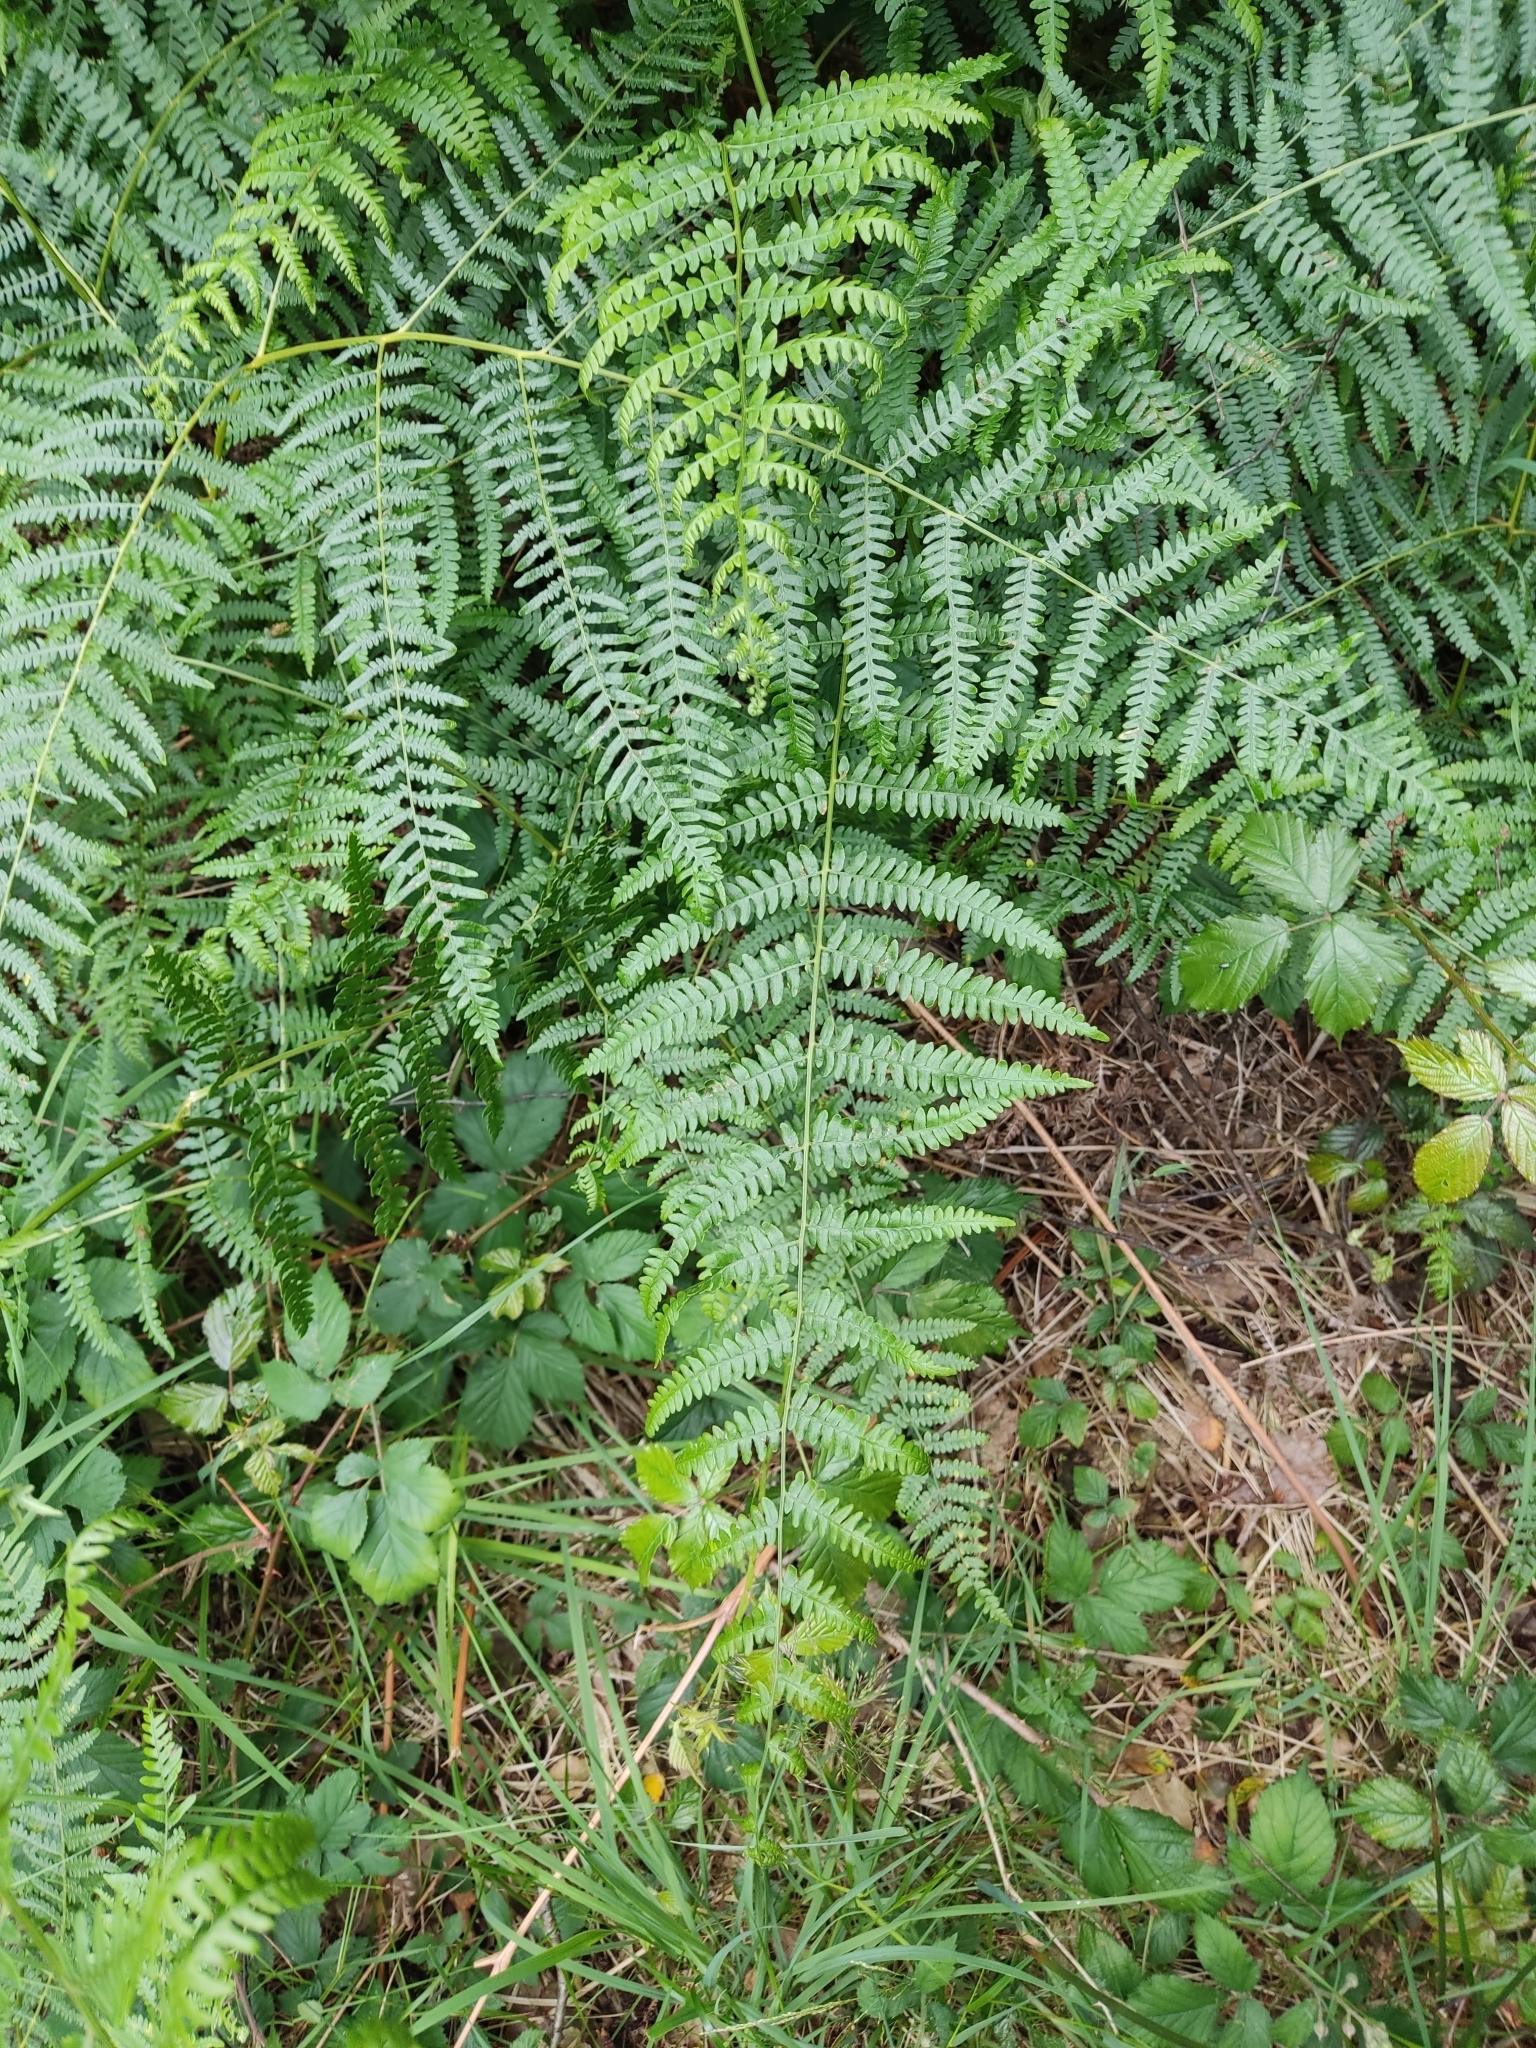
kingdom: Plantae
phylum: Tracheophyta
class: Polypodiopsida
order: Polypodiales
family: Dennstaedtiaceae
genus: Pteridium
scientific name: Pteridium aquilinum
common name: Bracken
